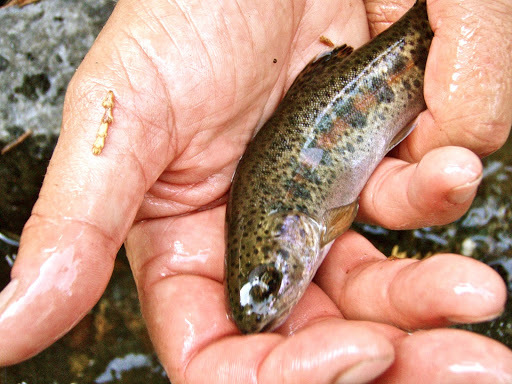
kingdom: Animalia
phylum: Chordata
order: Salmoniformes
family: Salmonidae
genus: Oncorhynchus
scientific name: Oncorhynchus mykiss
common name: Rainbow trout
